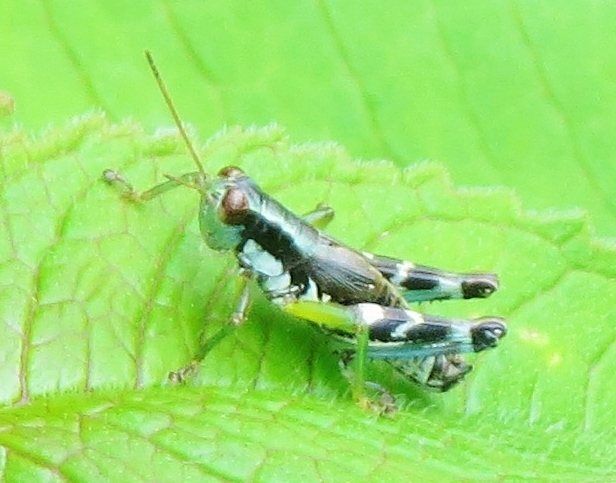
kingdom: Animalia
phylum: Arthropoda
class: Insecta
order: Orthoptera
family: Acrididae
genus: Melanoplus
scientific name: Melanoplus viridipes
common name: Green-legged locust
